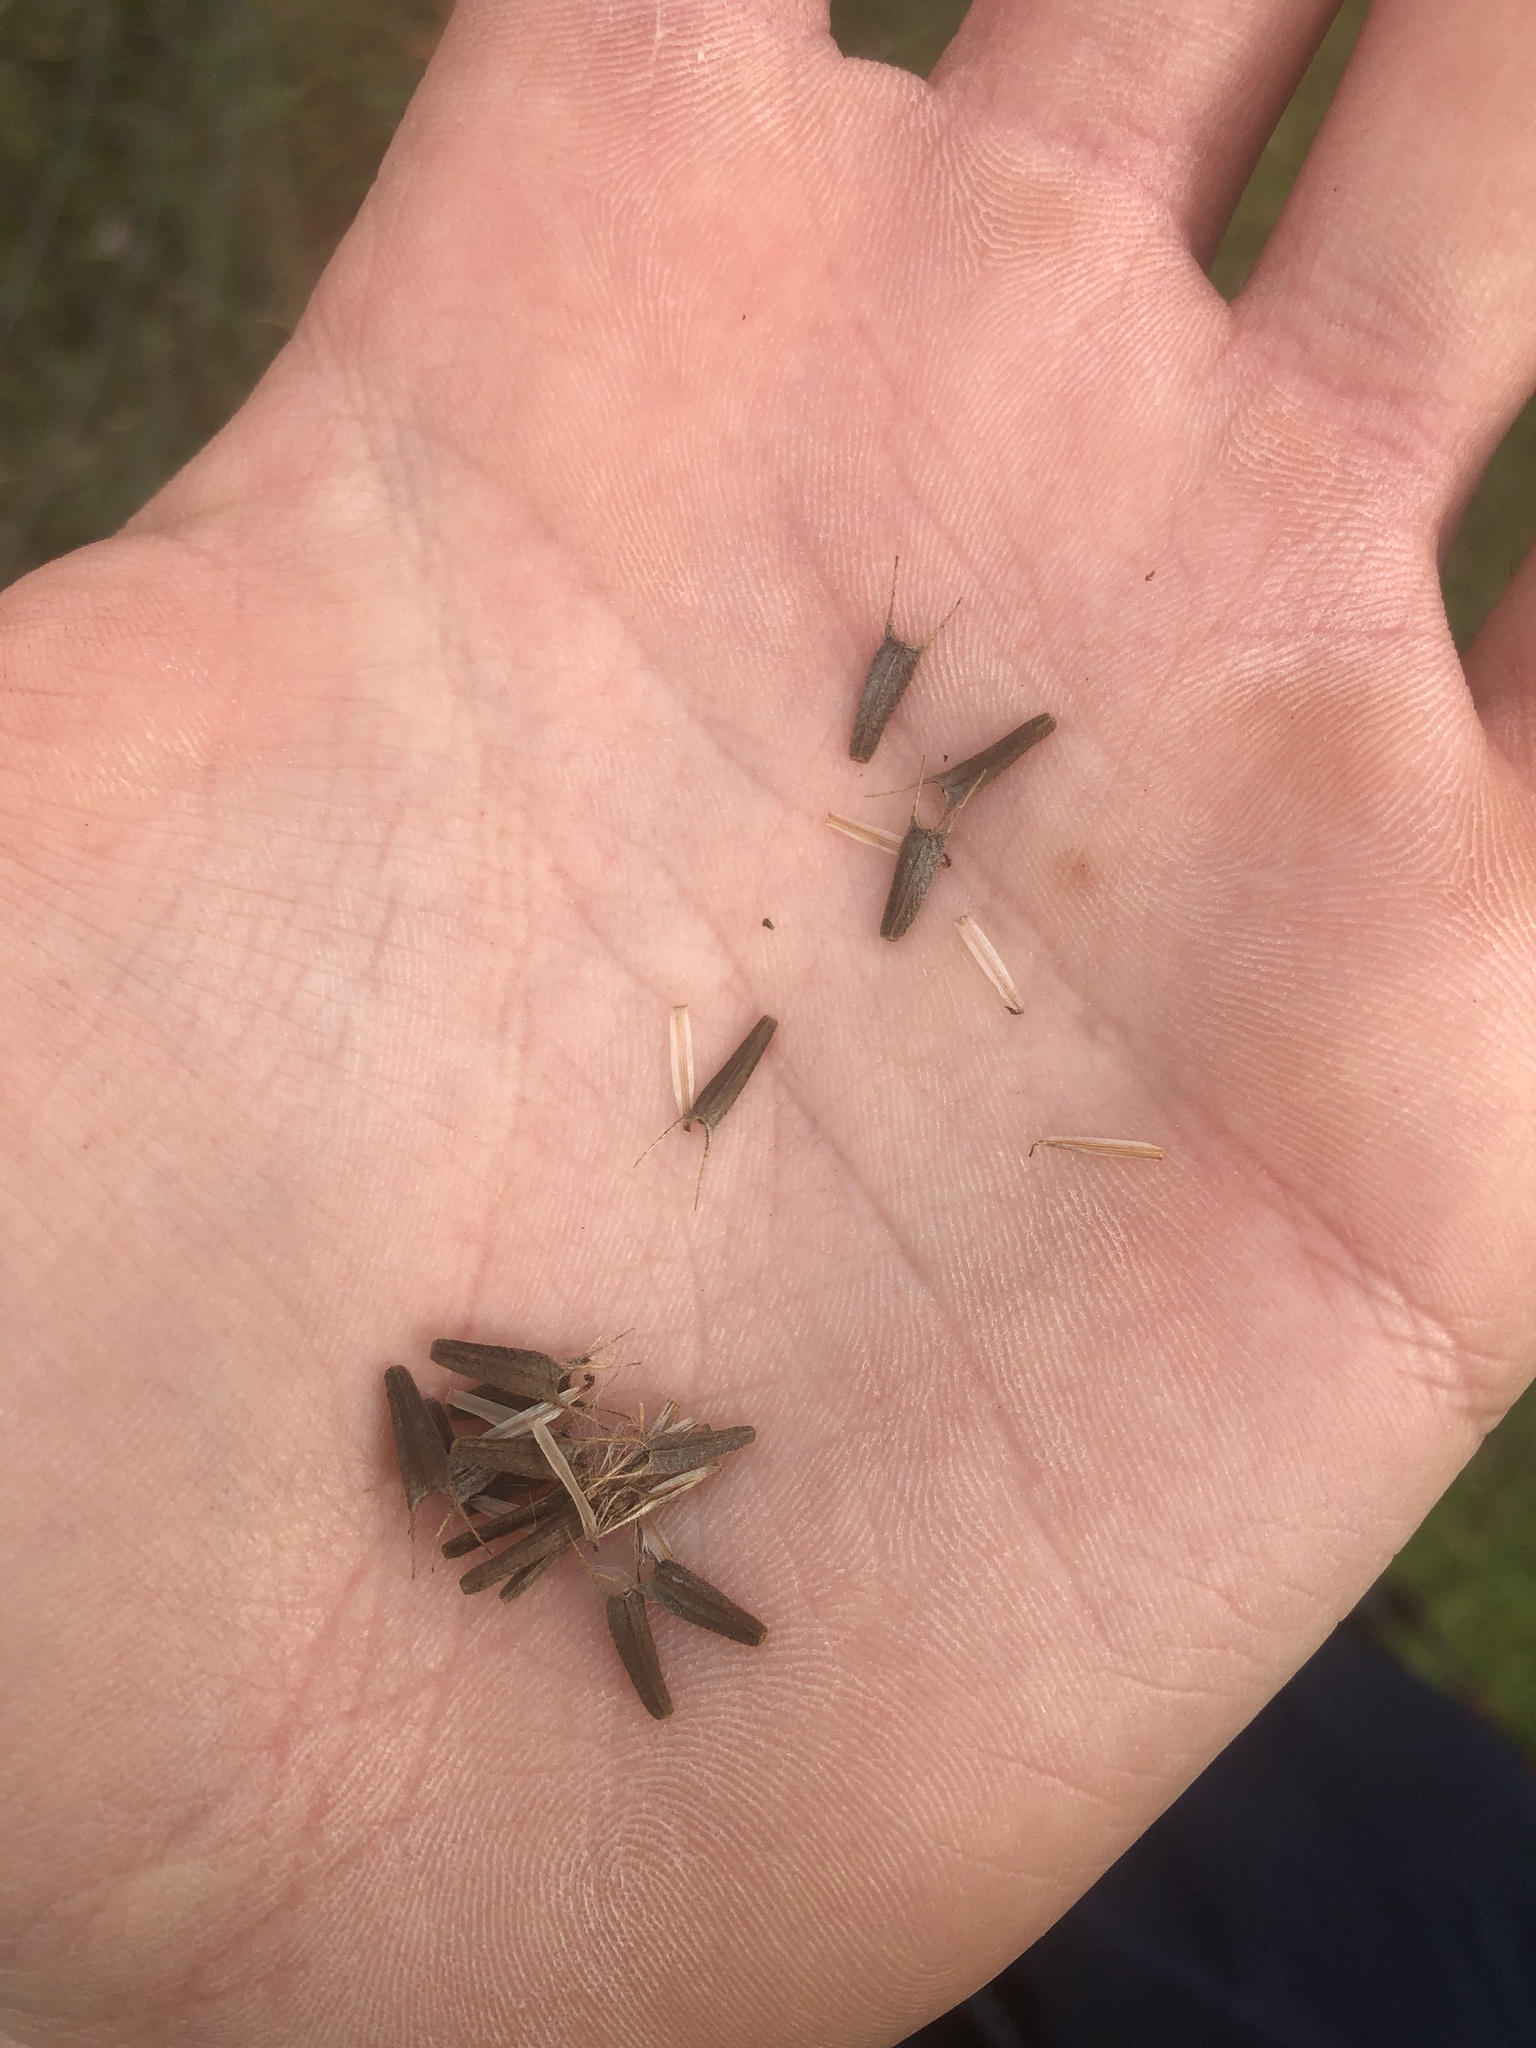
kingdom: Plantae
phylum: Tracheophyta
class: Magnoliopsida
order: Asterales
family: Asteraceae
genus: Bidens
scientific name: Bidens frondosa
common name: Beggarticks
